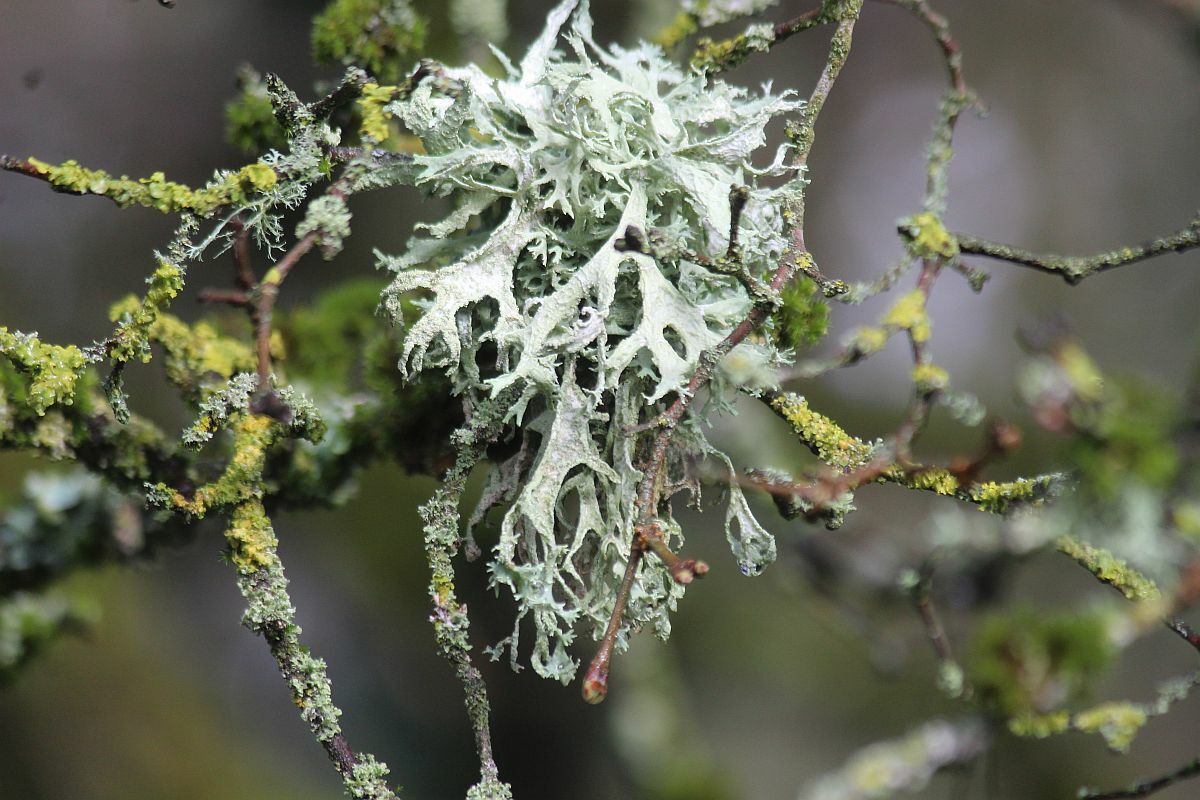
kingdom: Fungi
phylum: Ascomycota
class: Lecanoromycetes
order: Lecanorales
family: Parmeliaceae
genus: Evernia
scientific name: Evernia prunastri
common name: Oak moss
